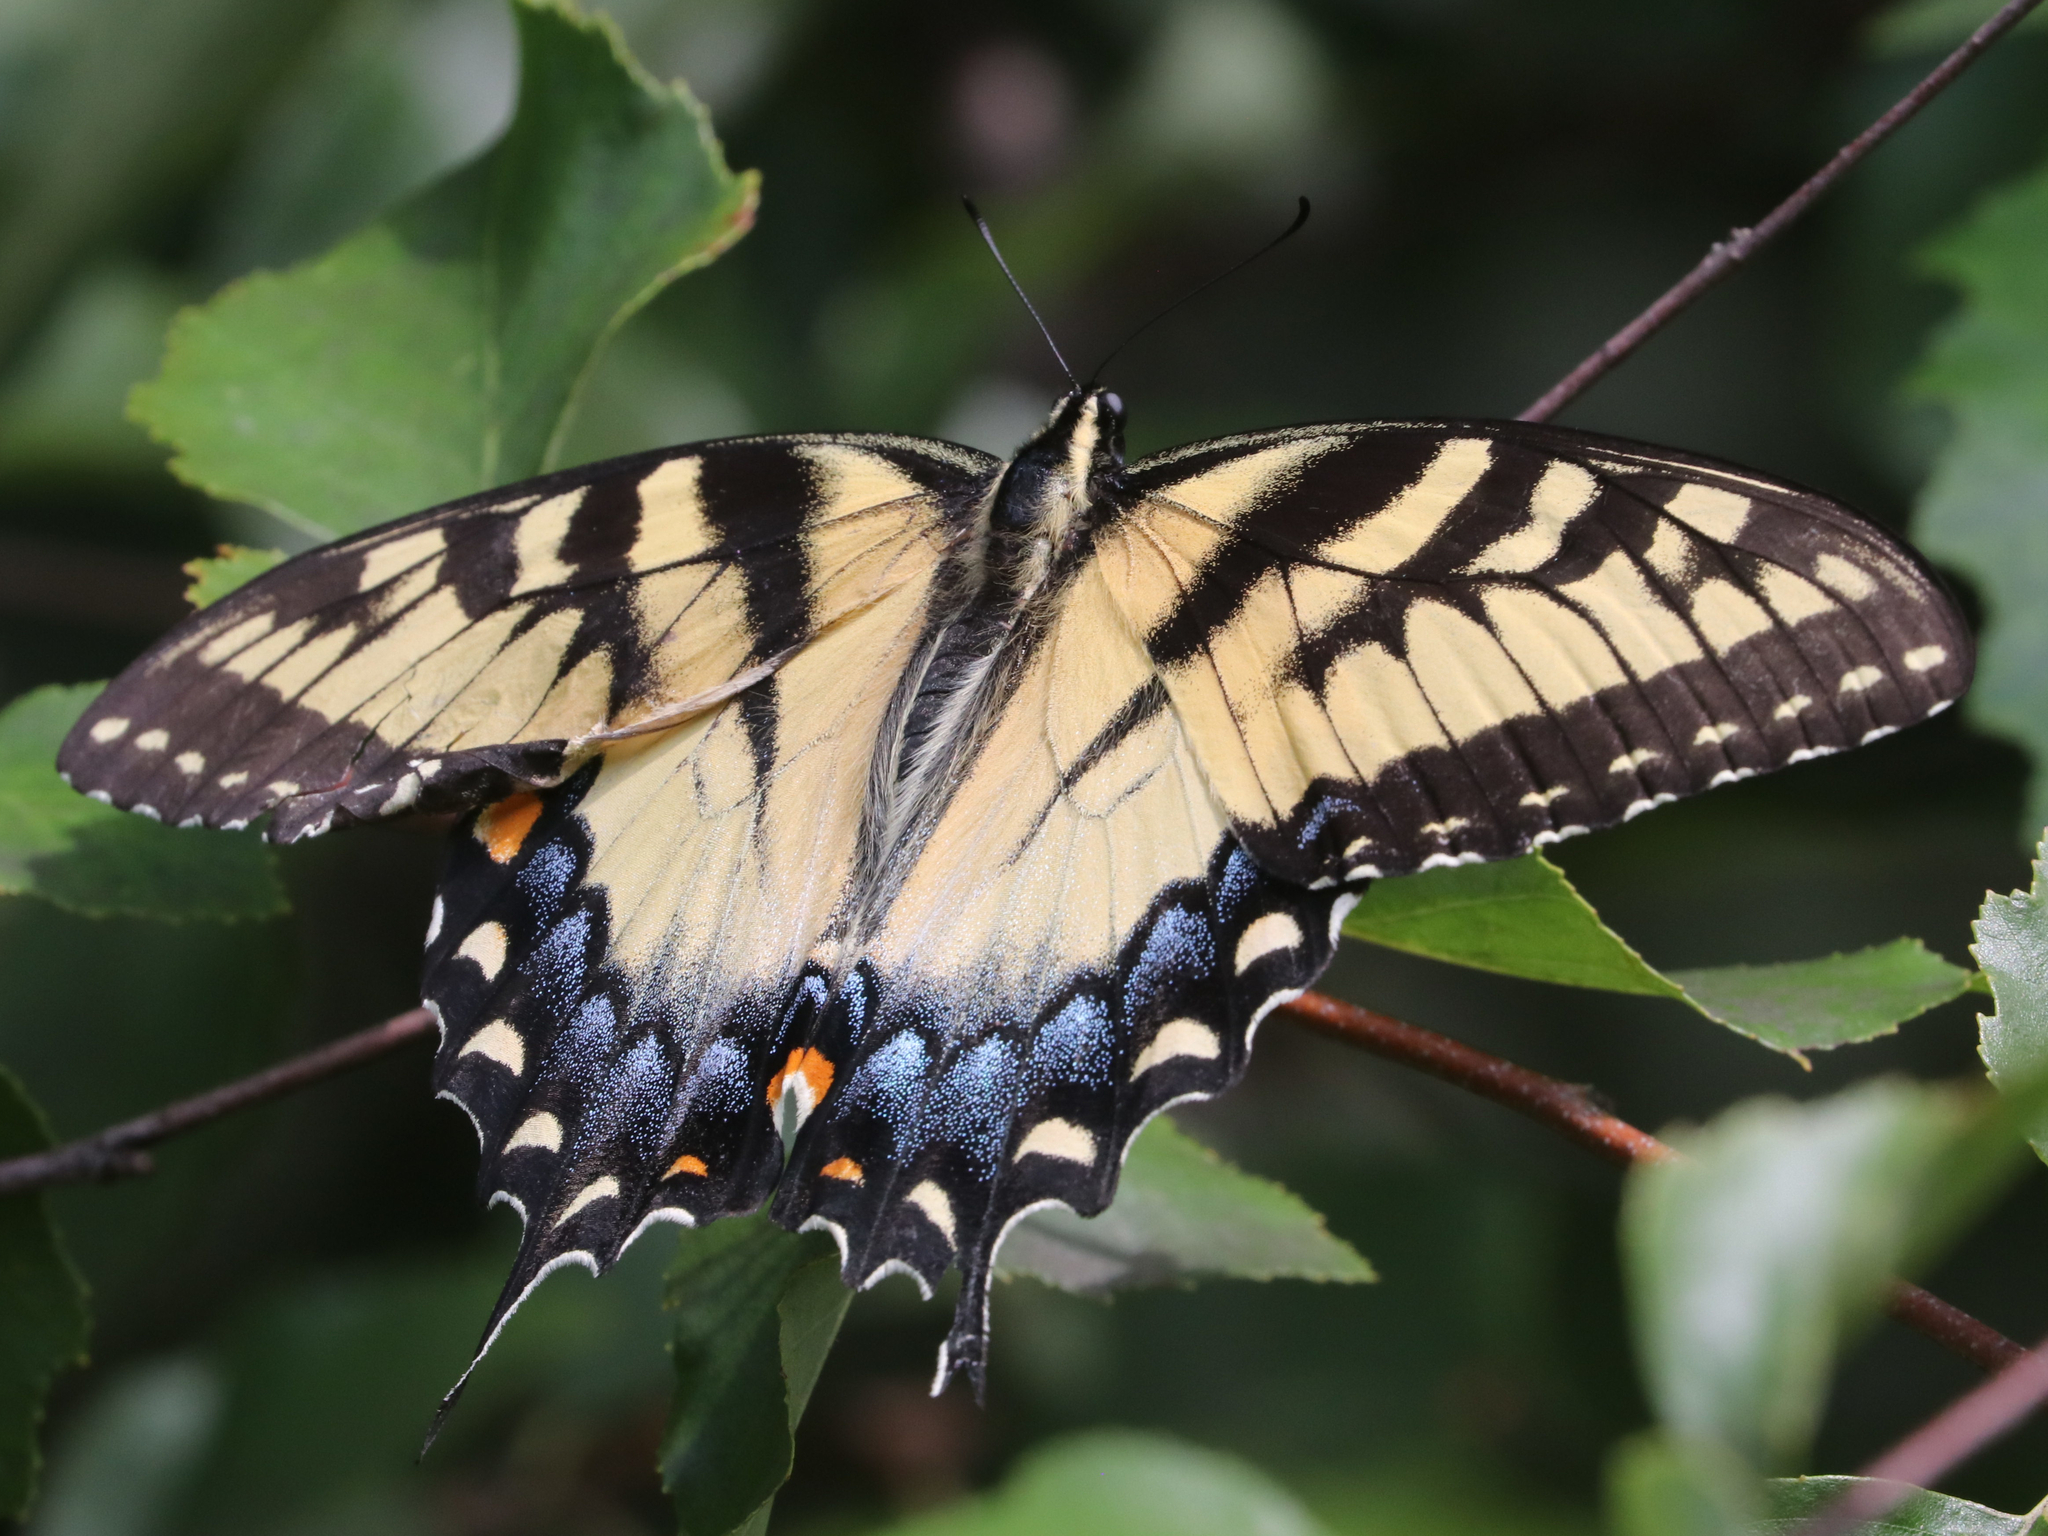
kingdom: Animalia
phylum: Arthropoda
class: Insecta
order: Lepidoptera
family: Papilionidae
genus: Papilio
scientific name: Papilio glaucus
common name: Tiger swallowtail
